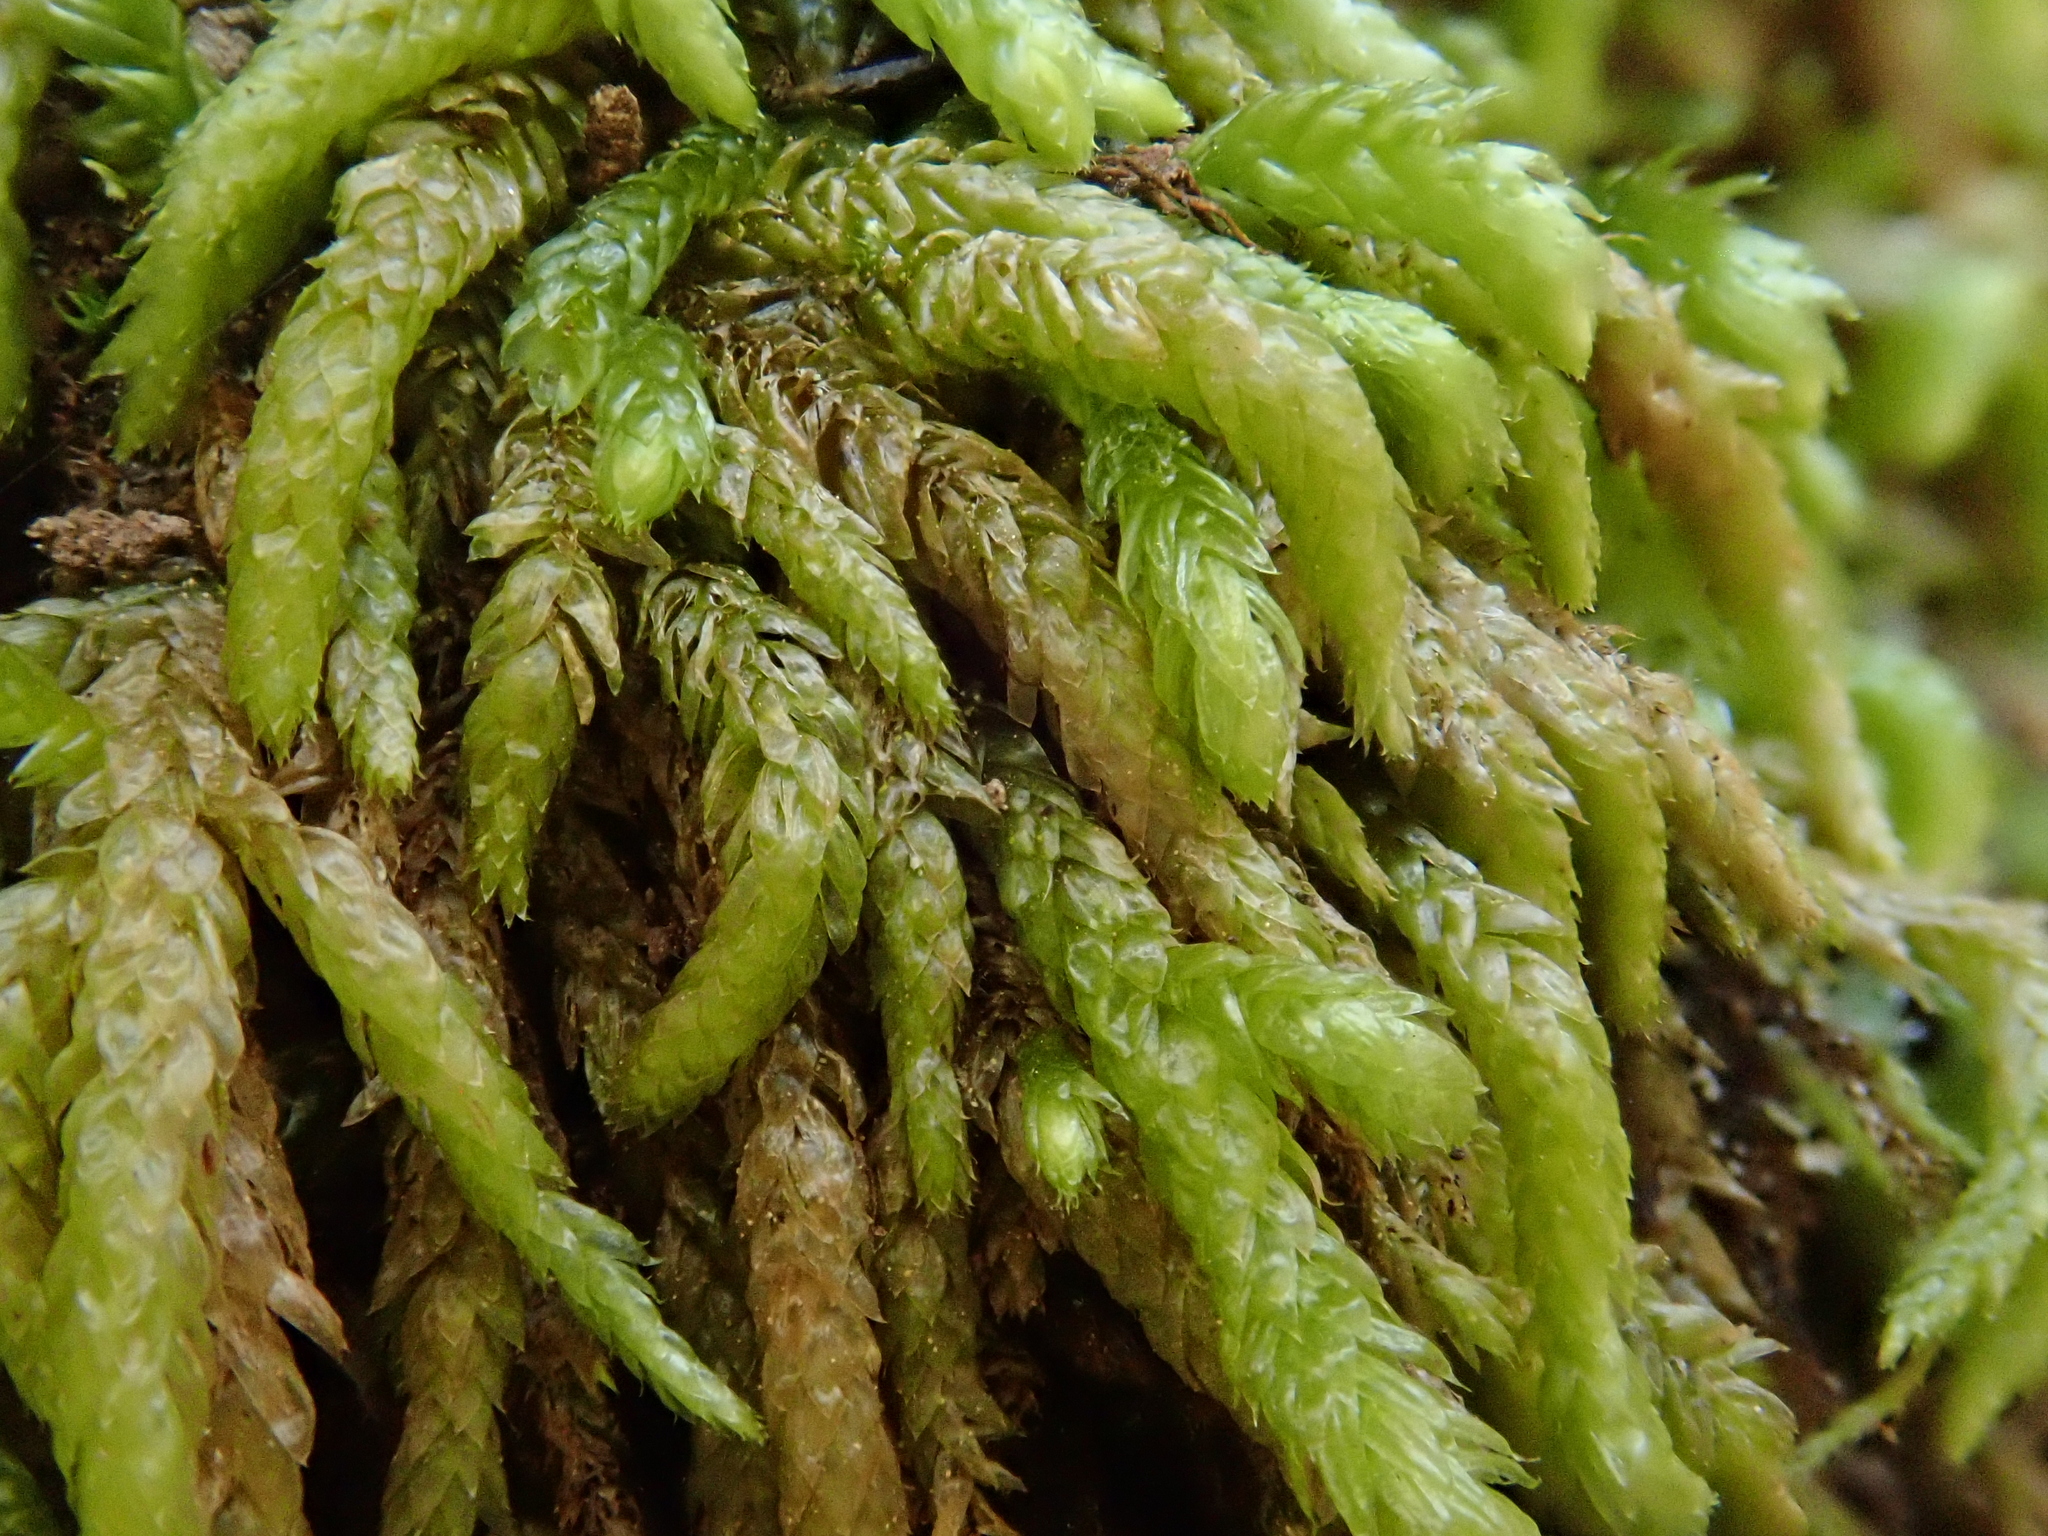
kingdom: Plantae
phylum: Bryophyta
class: Bryopsida
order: Hypnales
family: Brachytheciaceae
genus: Scleropodium
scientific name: Scleropodium touretii
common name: Glass-wort feather-moss
